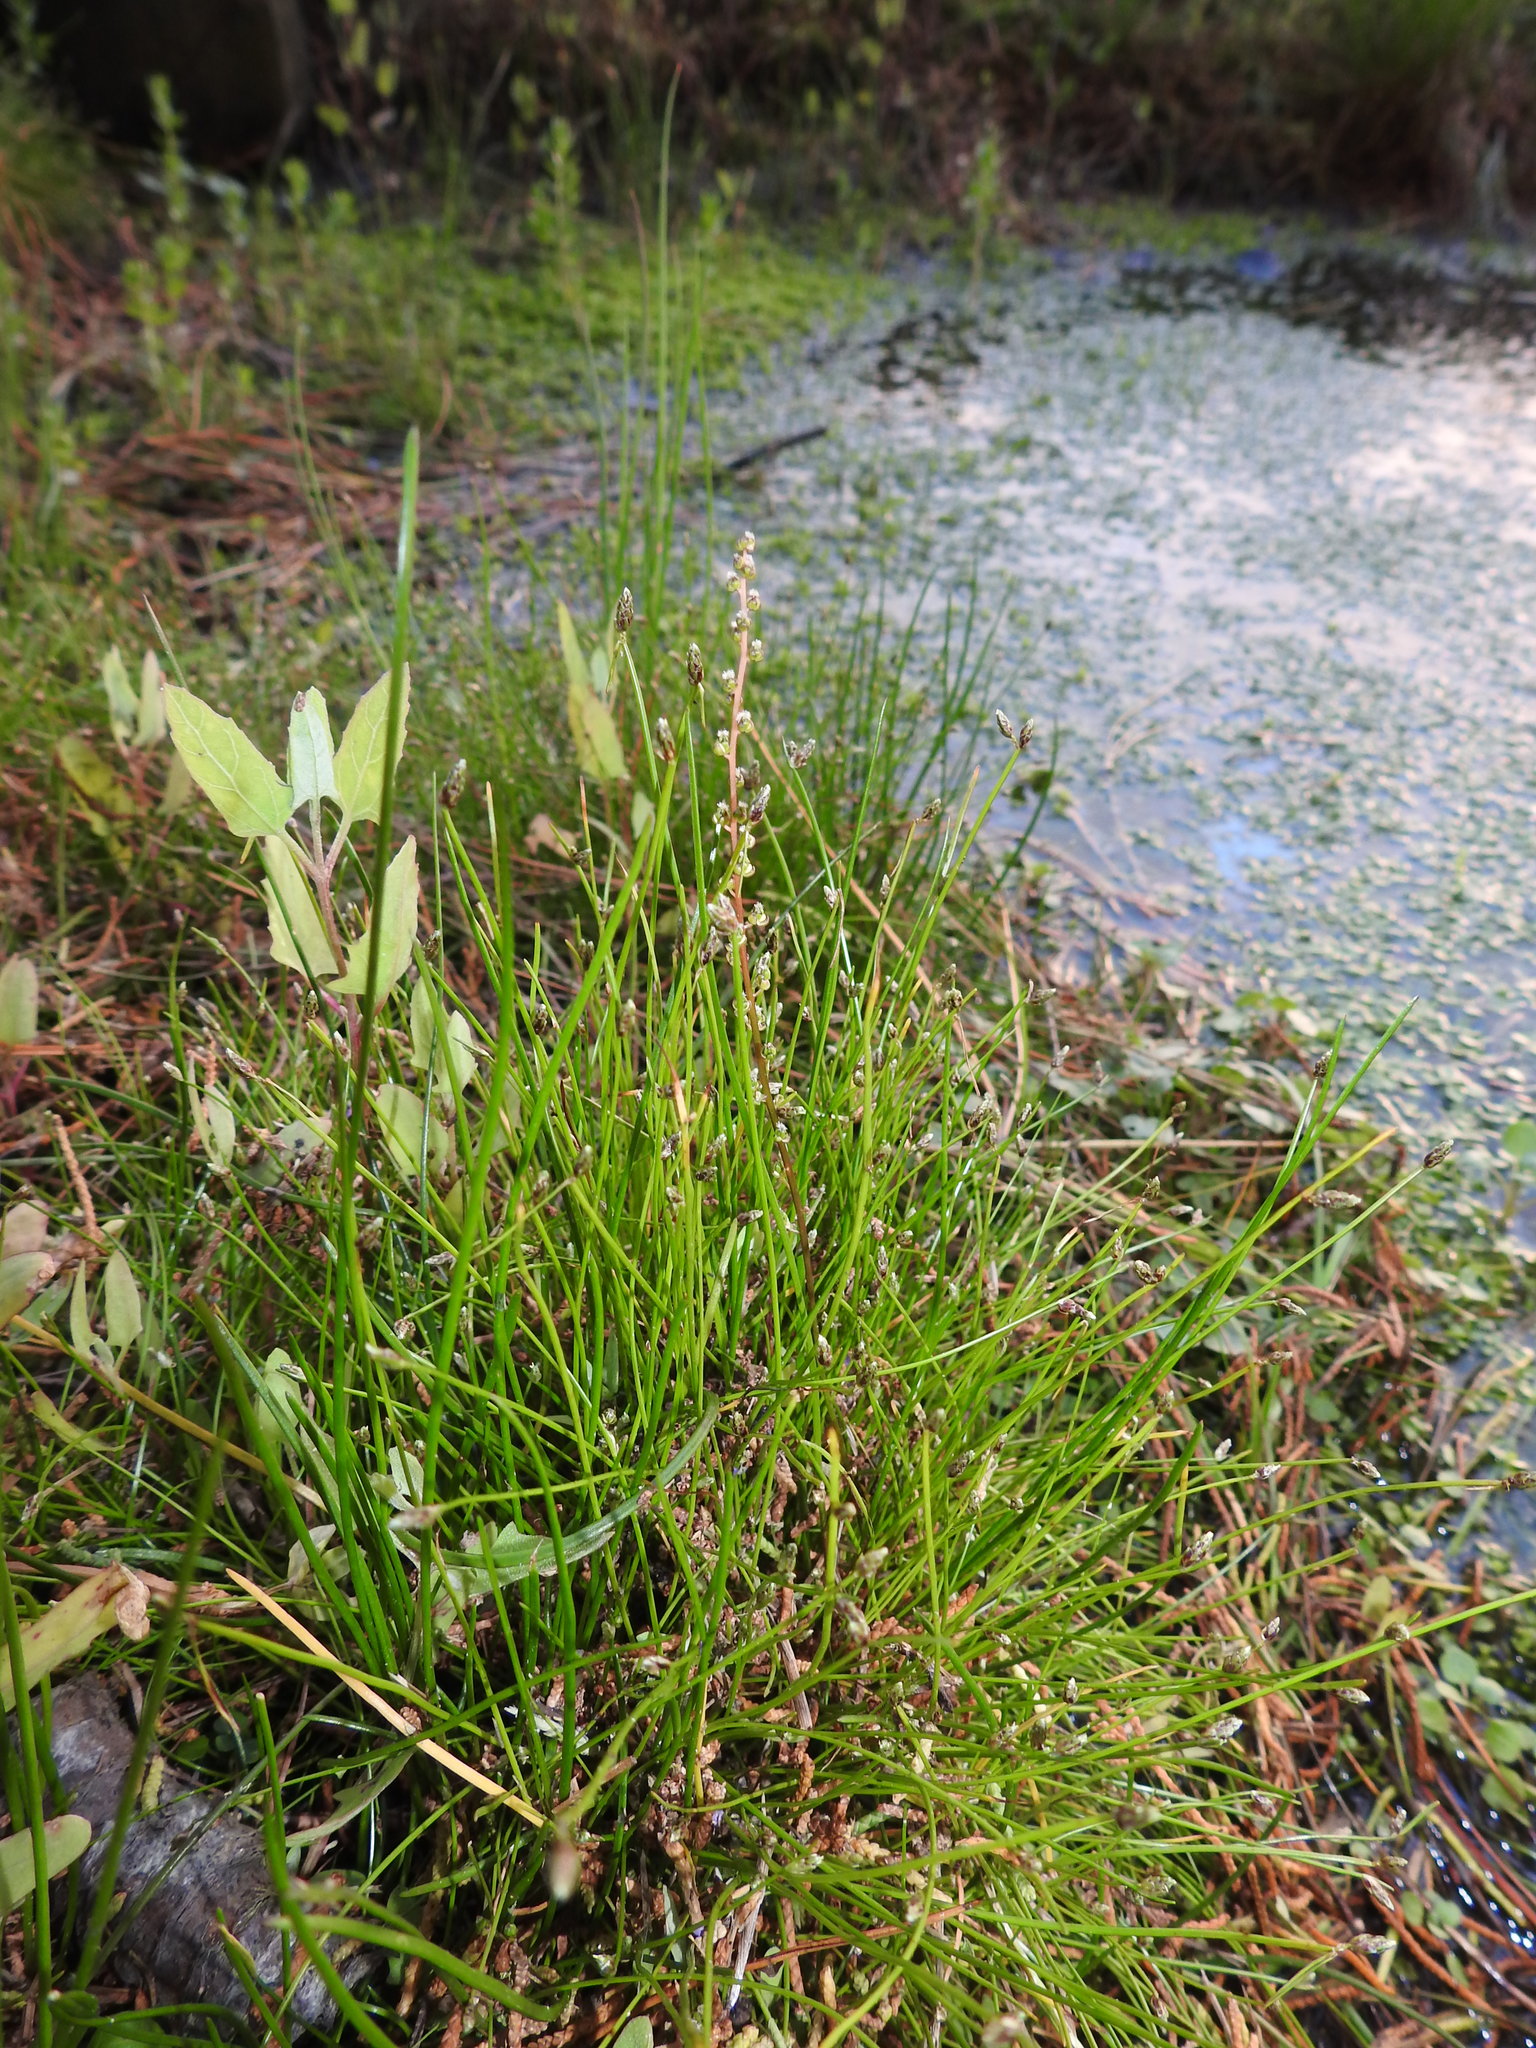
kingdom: Plantae
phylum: Tracheophyta
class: Liliopsida
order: Alismatales
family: Juncaginaceae
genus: Triglochin
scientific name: Triglochin striata
